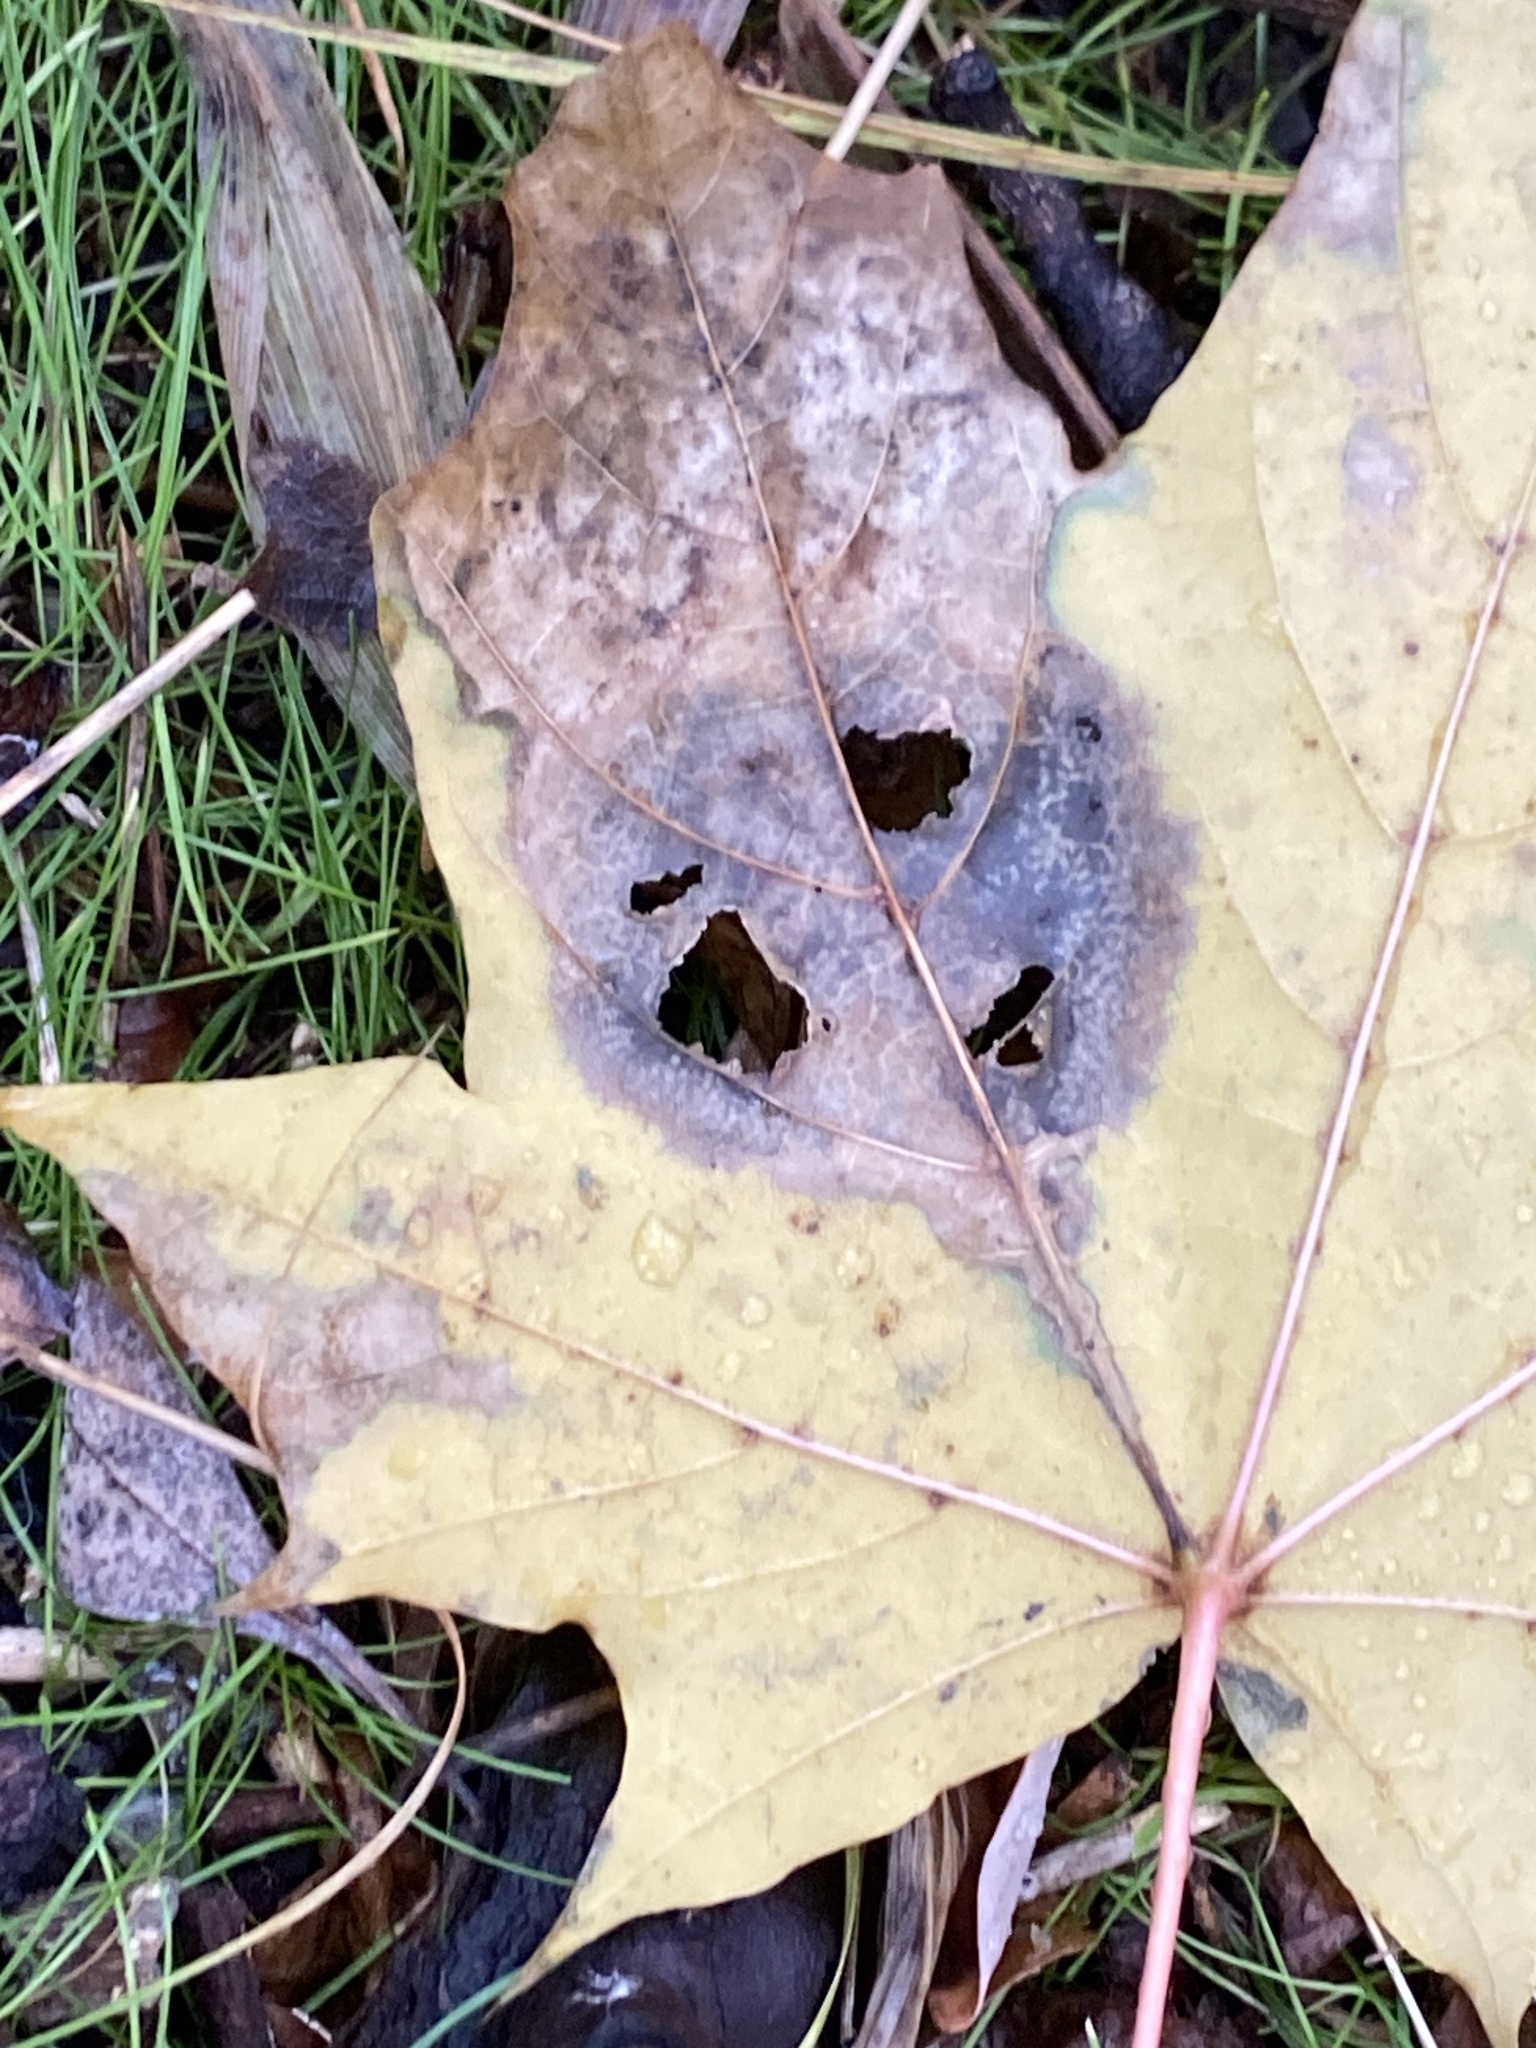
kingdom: Fungi
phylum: Ascomycota
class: Leotiomycetes
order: Rhytismatales
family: Rhytismataceae
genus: Rhytisma
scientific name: Rhytisma acerinum
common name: European tar spot
